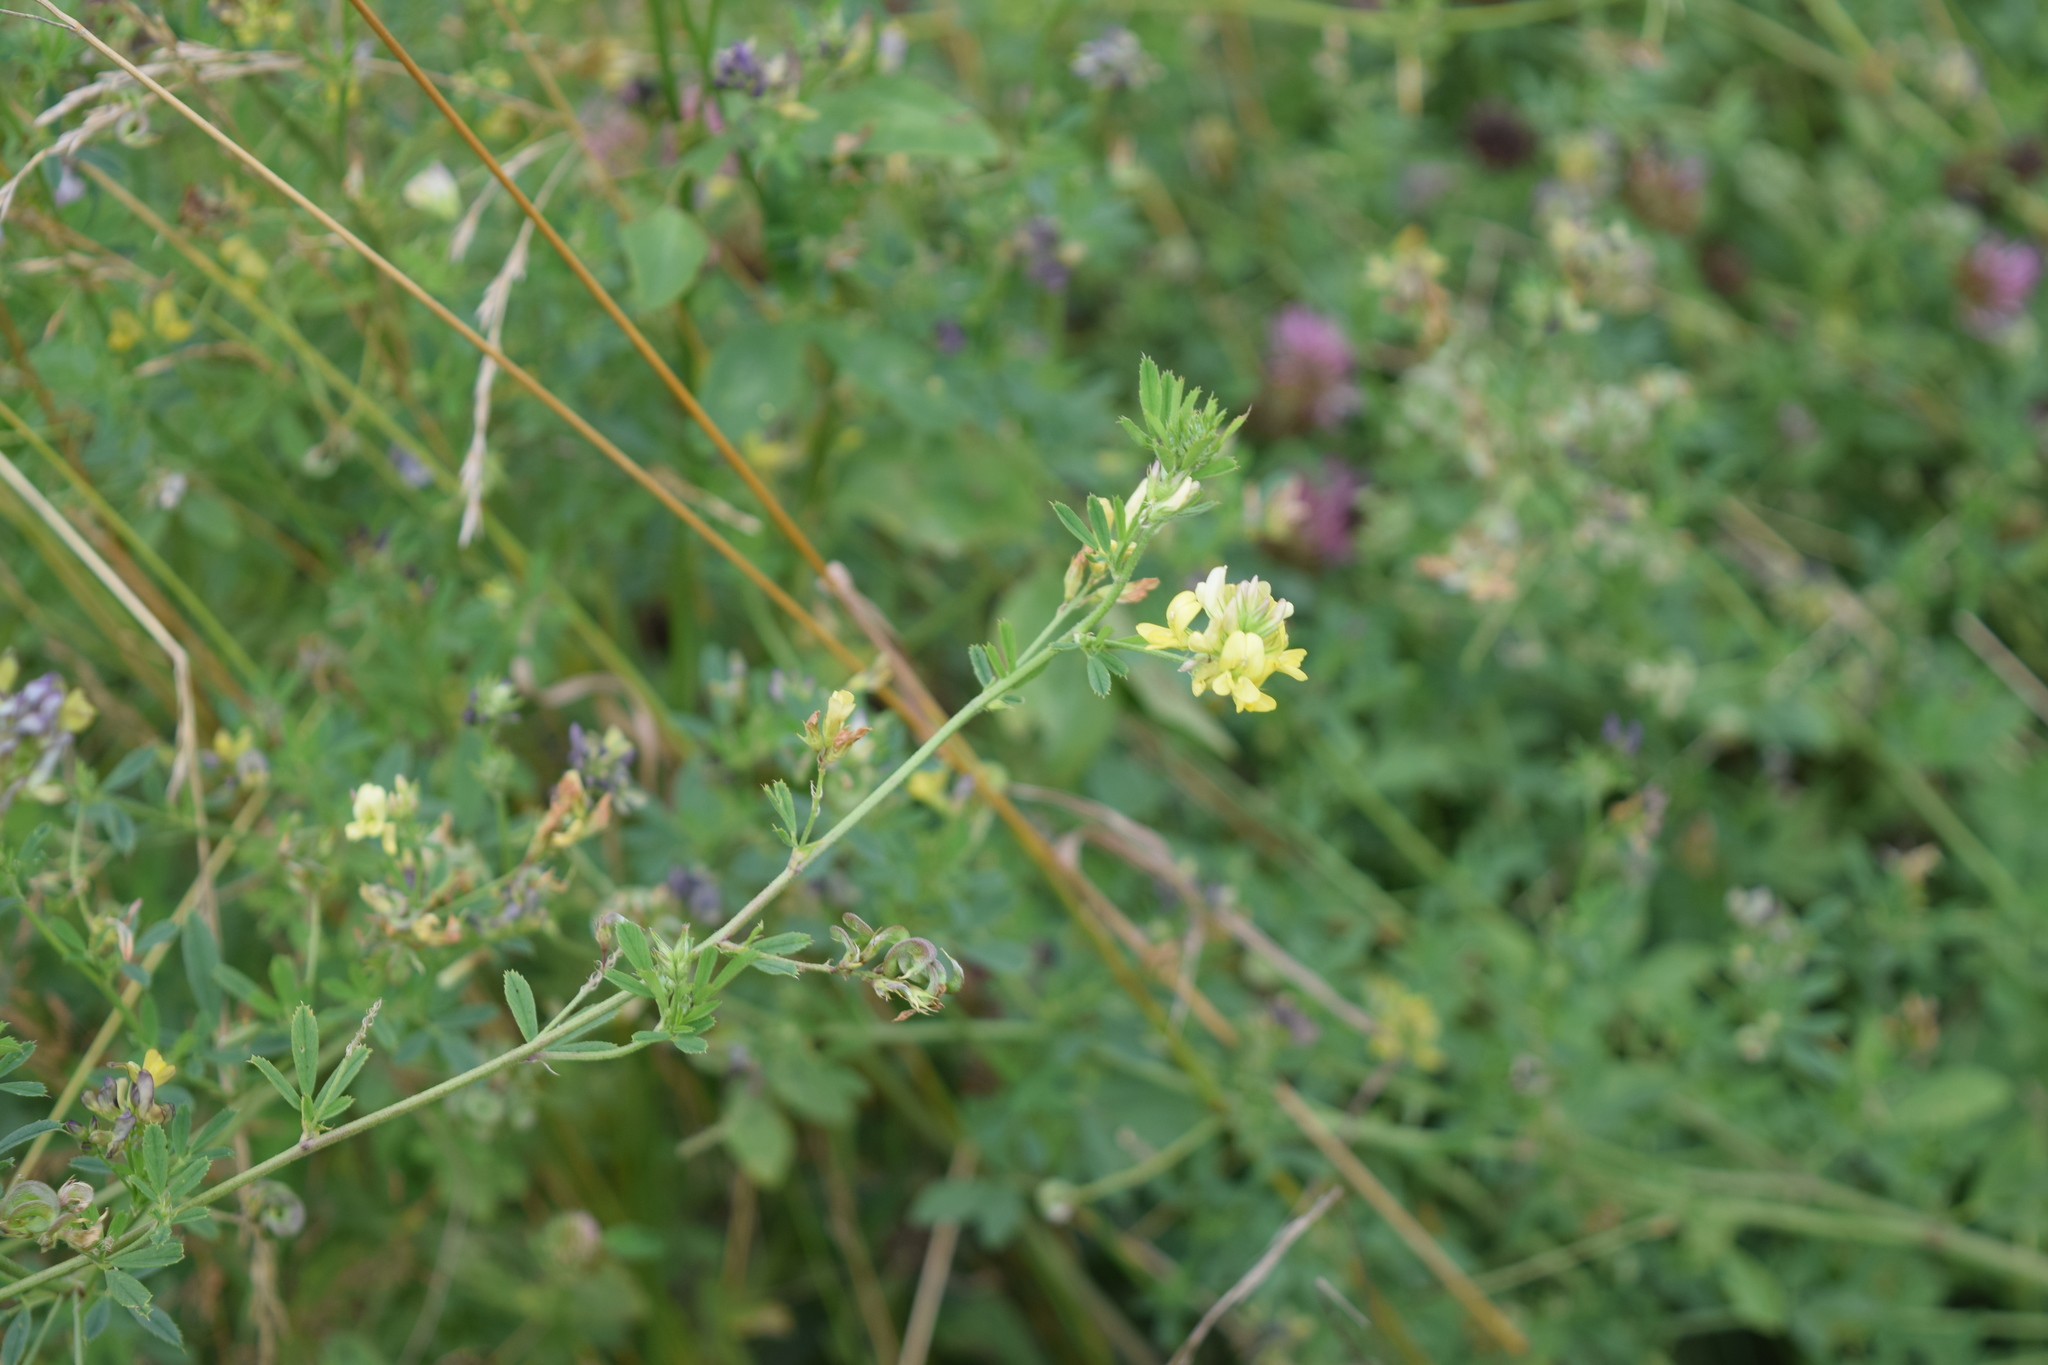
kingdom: Plantae
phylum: Tracheophyta
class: Magnoliopsida
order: Fabales
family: Fabaceae
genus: Medicago
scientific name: Medicago varia
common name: Sand lucerne
